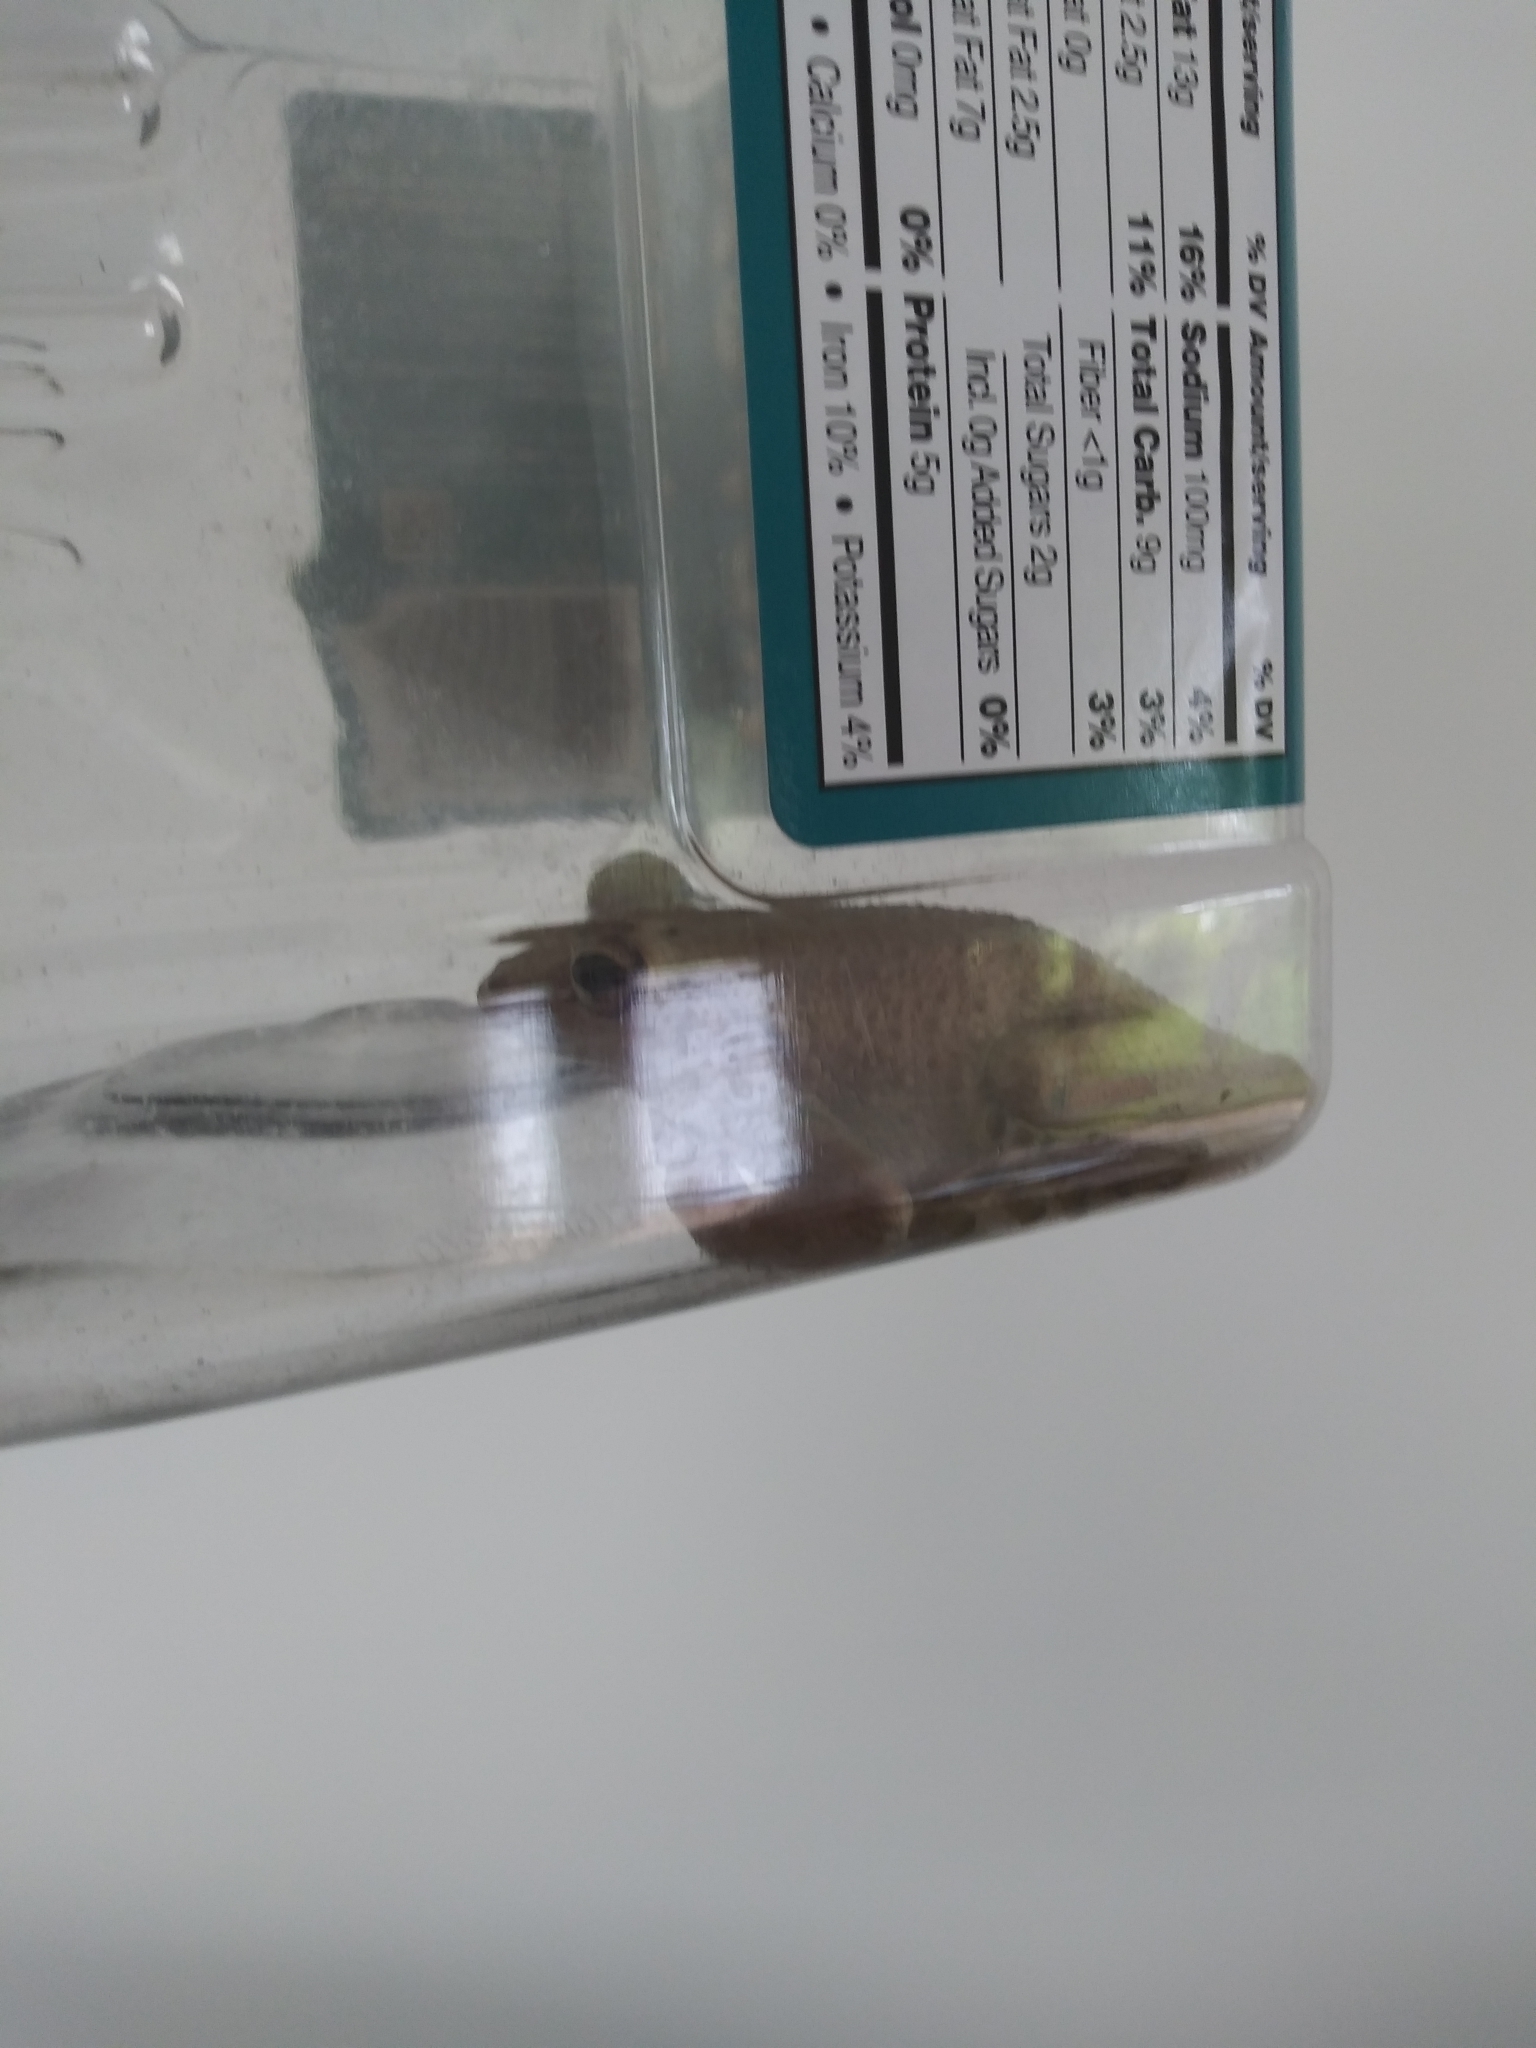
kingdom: Animalia
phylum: Chordata
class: Amphibia
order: Anura
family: Hylidae
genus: Osteopilus
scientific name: Osteopilus septentrionalis
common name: Cuban treefrog
